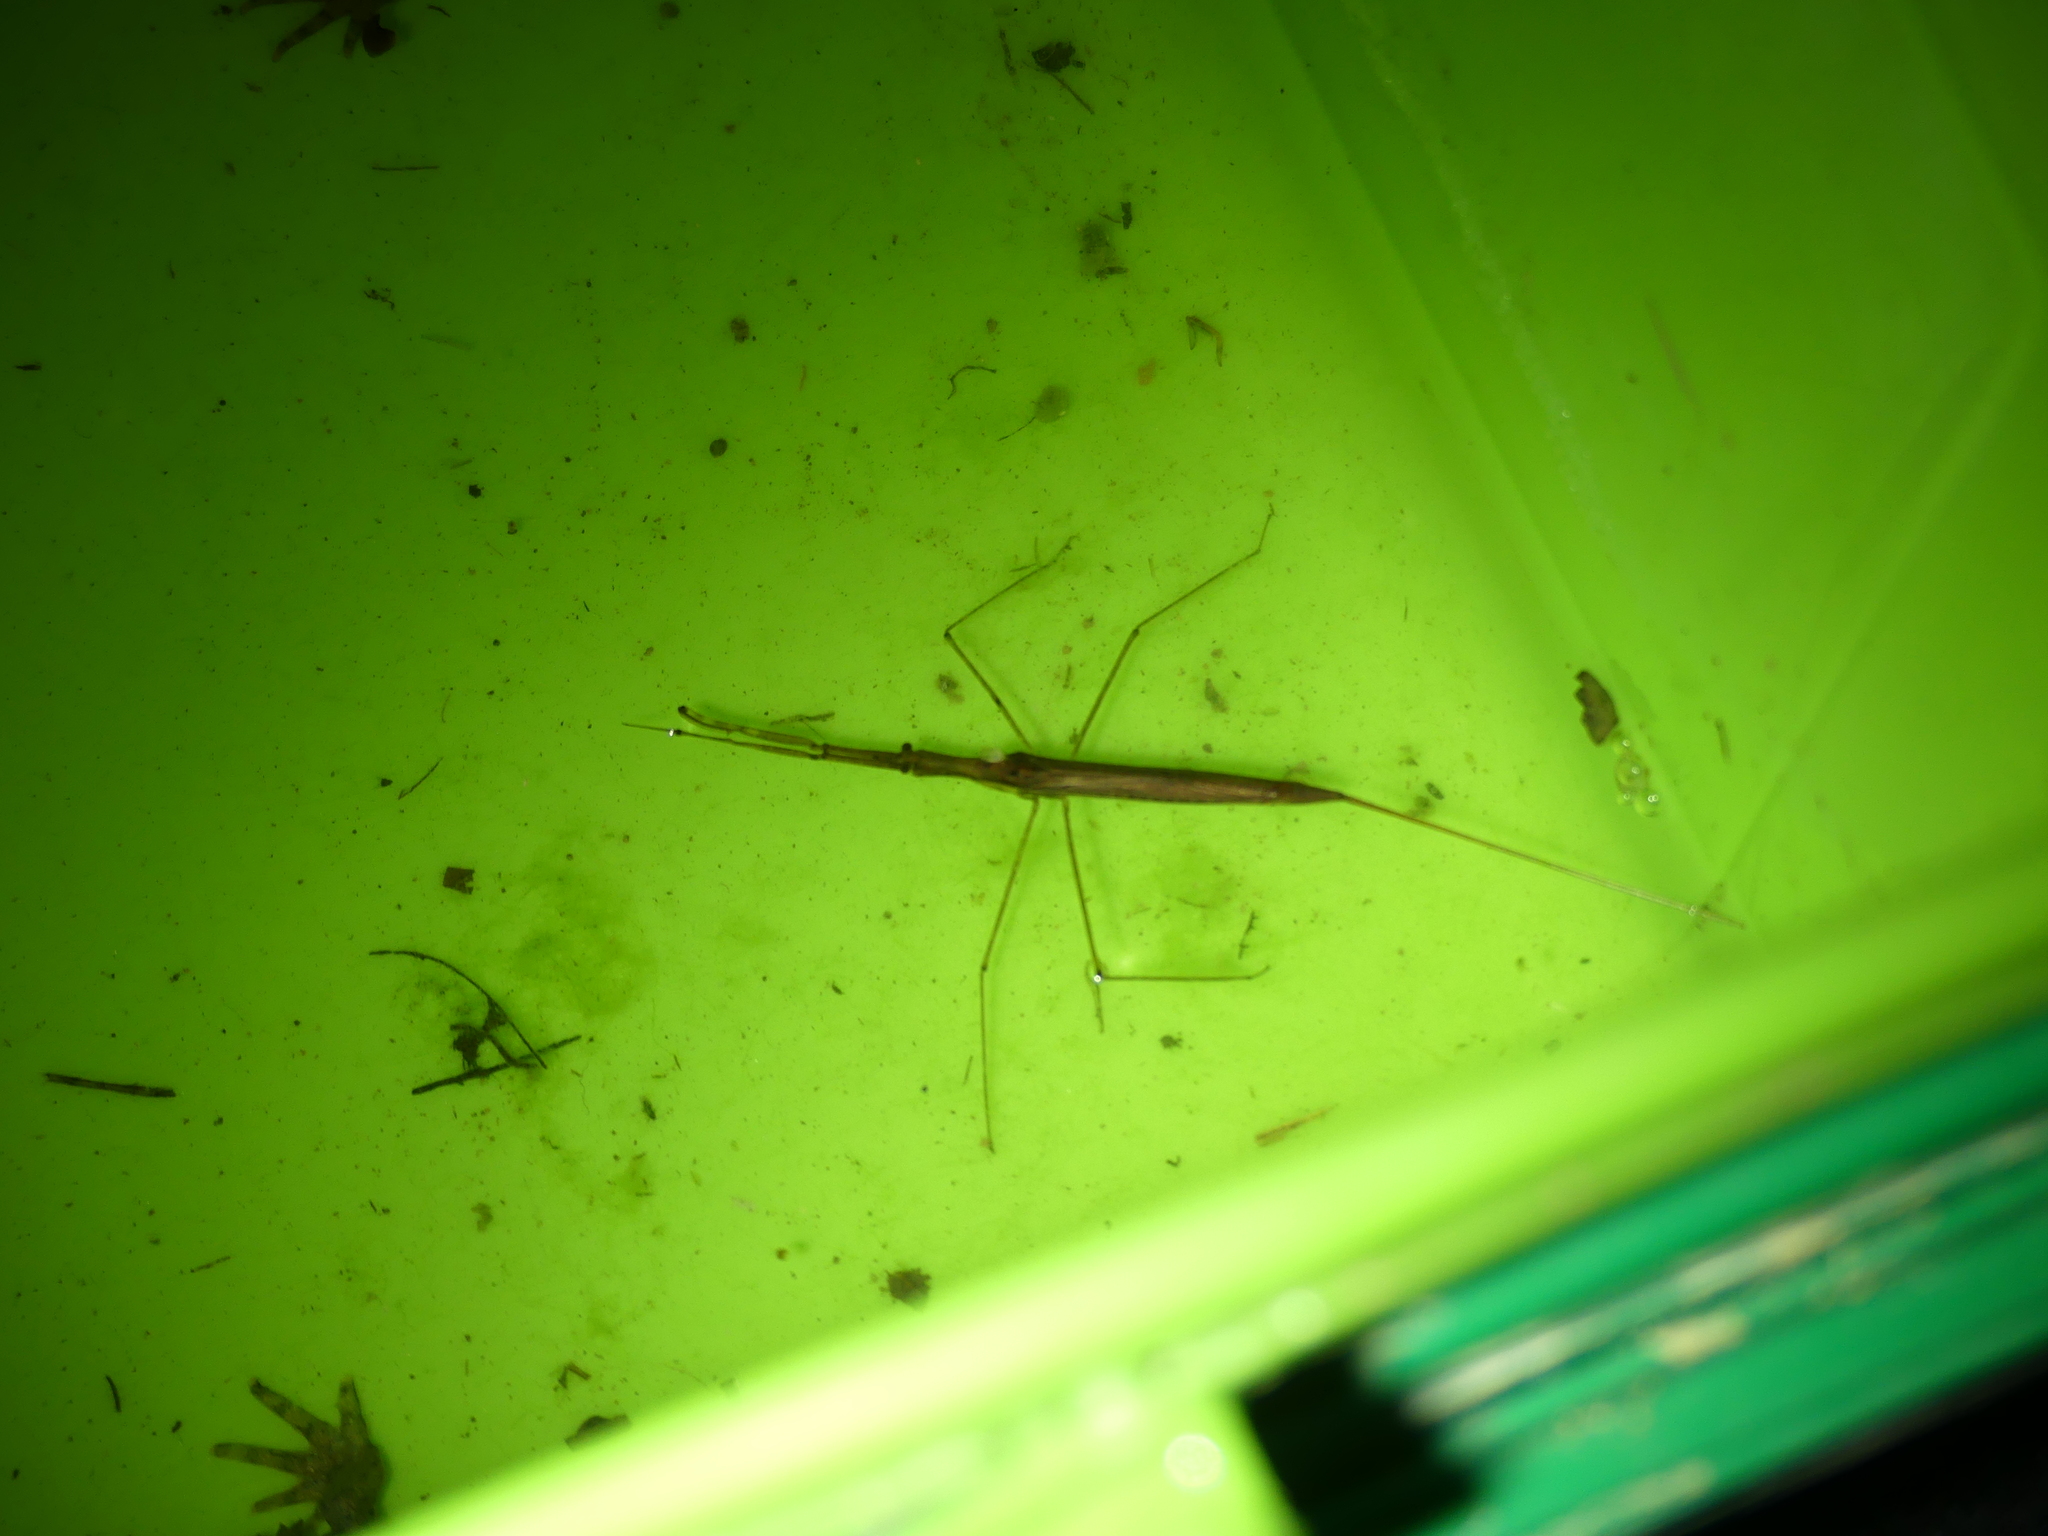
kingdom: Animalia
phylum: Arthropoda
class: Insecta
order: Hemiptera
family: Nepidae
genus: Ranatra
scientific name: Ranatra linearis
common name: Water stick insect
